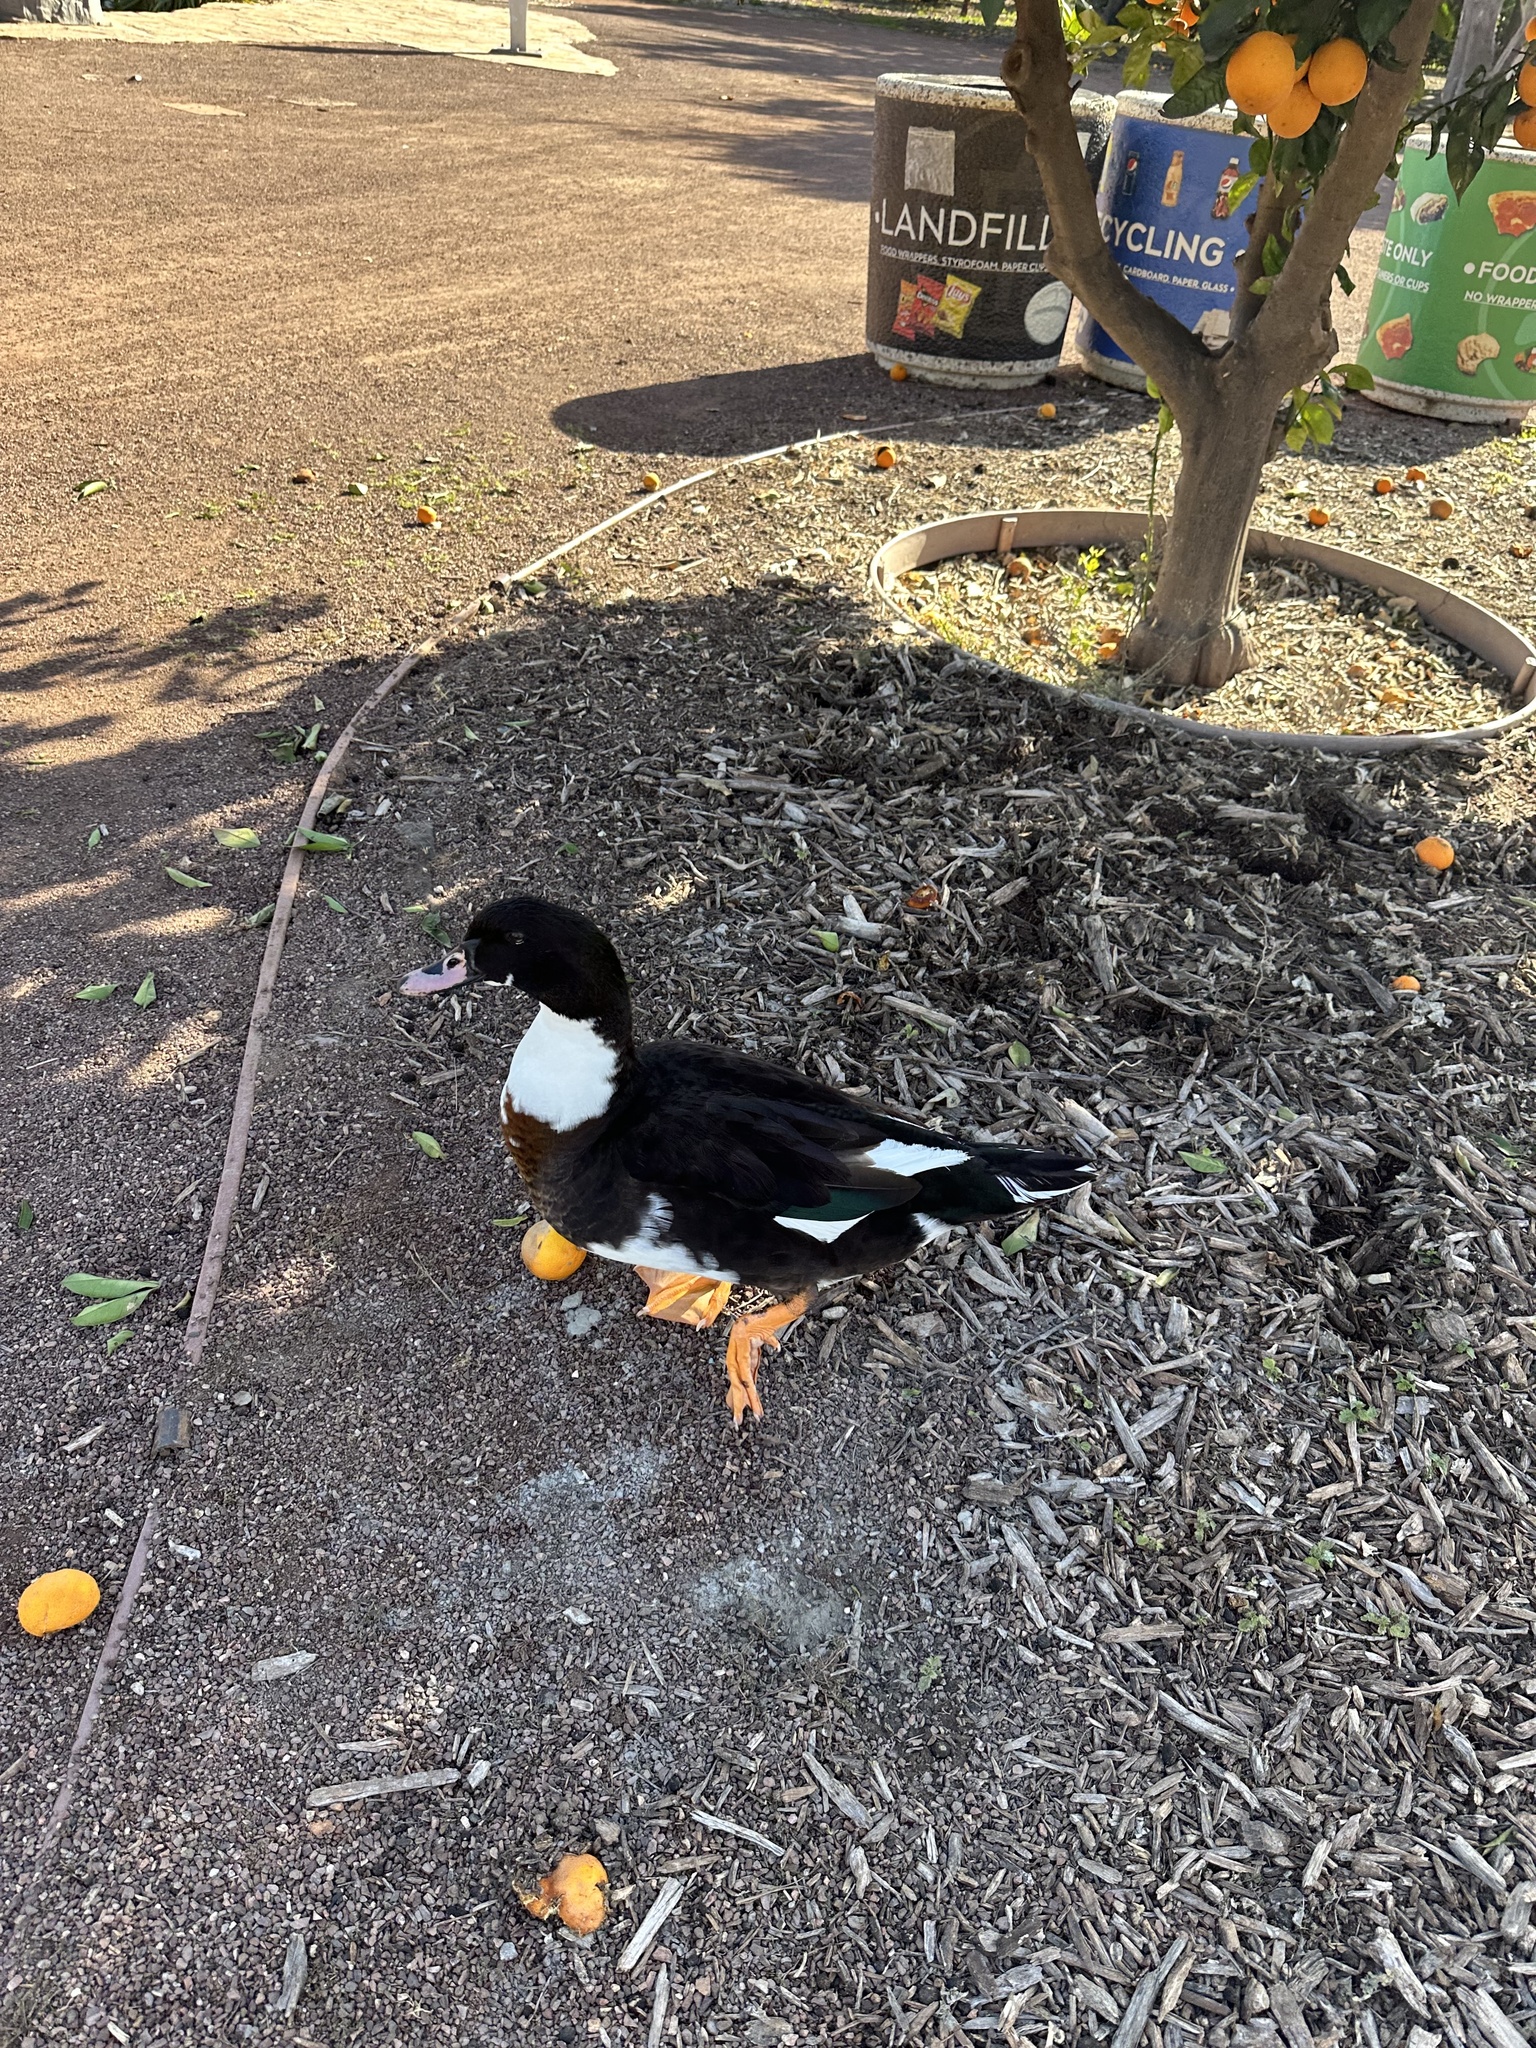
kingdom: Animalia
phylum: Chordata
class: Aves
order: Anseriformes
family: Anatidae
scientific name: Anatidae
